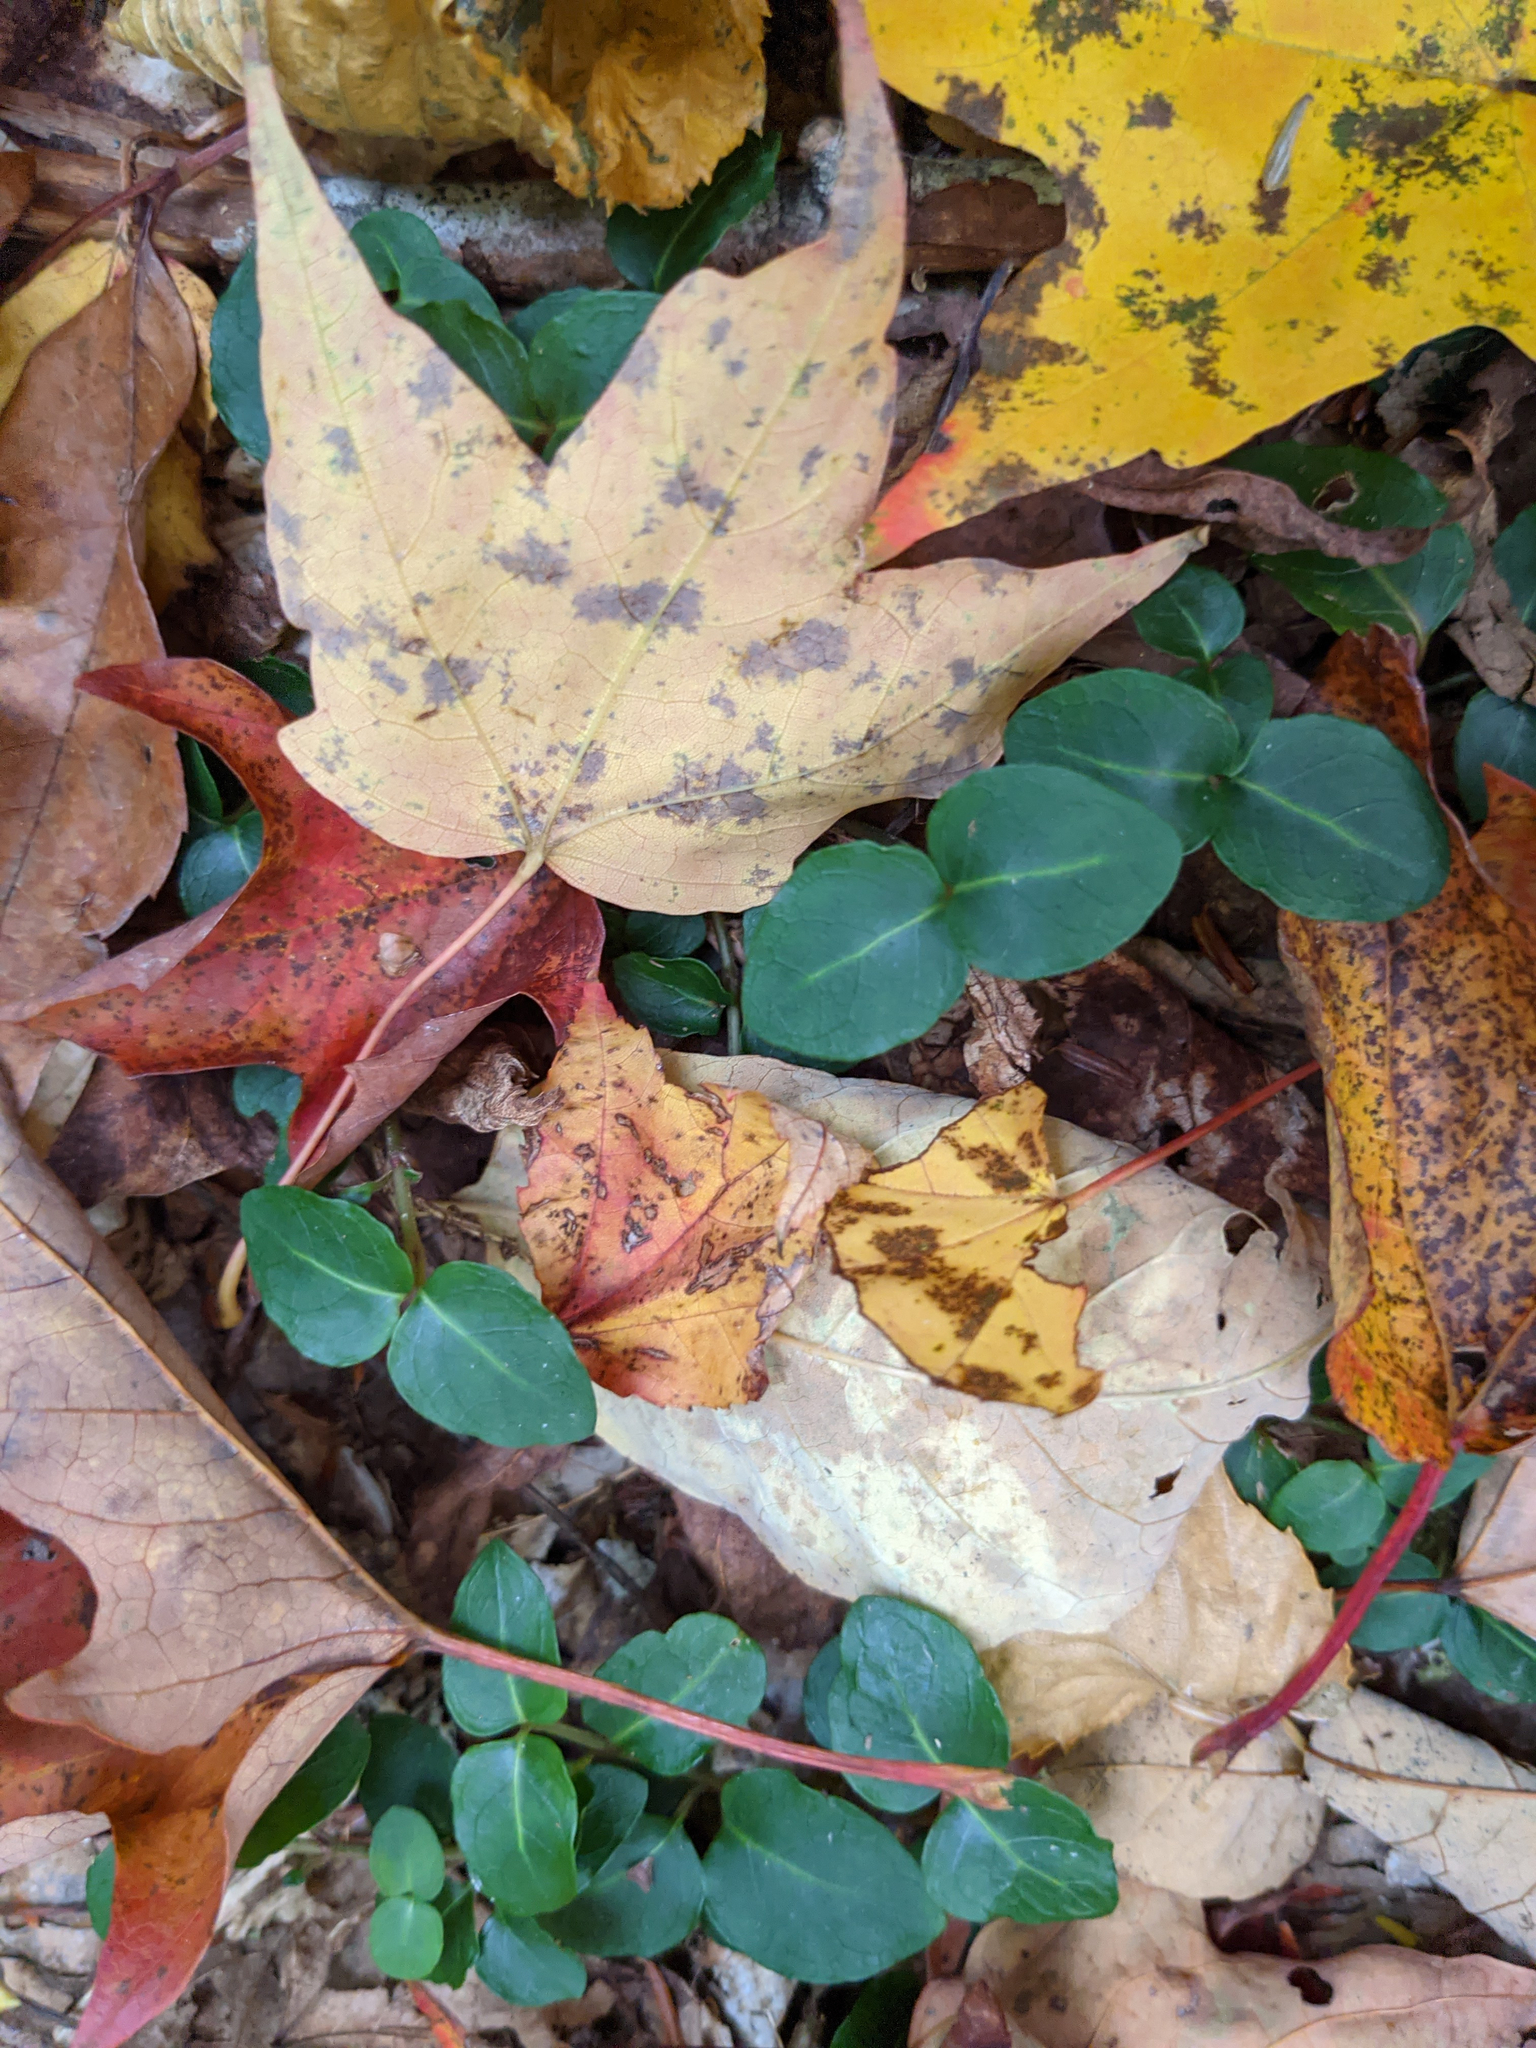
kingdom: Plantae
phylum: Tracheophyta
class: Magnoliopsida
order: Gentianales
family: Rubiaceae
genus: Mitchella
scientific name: Mitchella repens
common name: Partridge-berry
